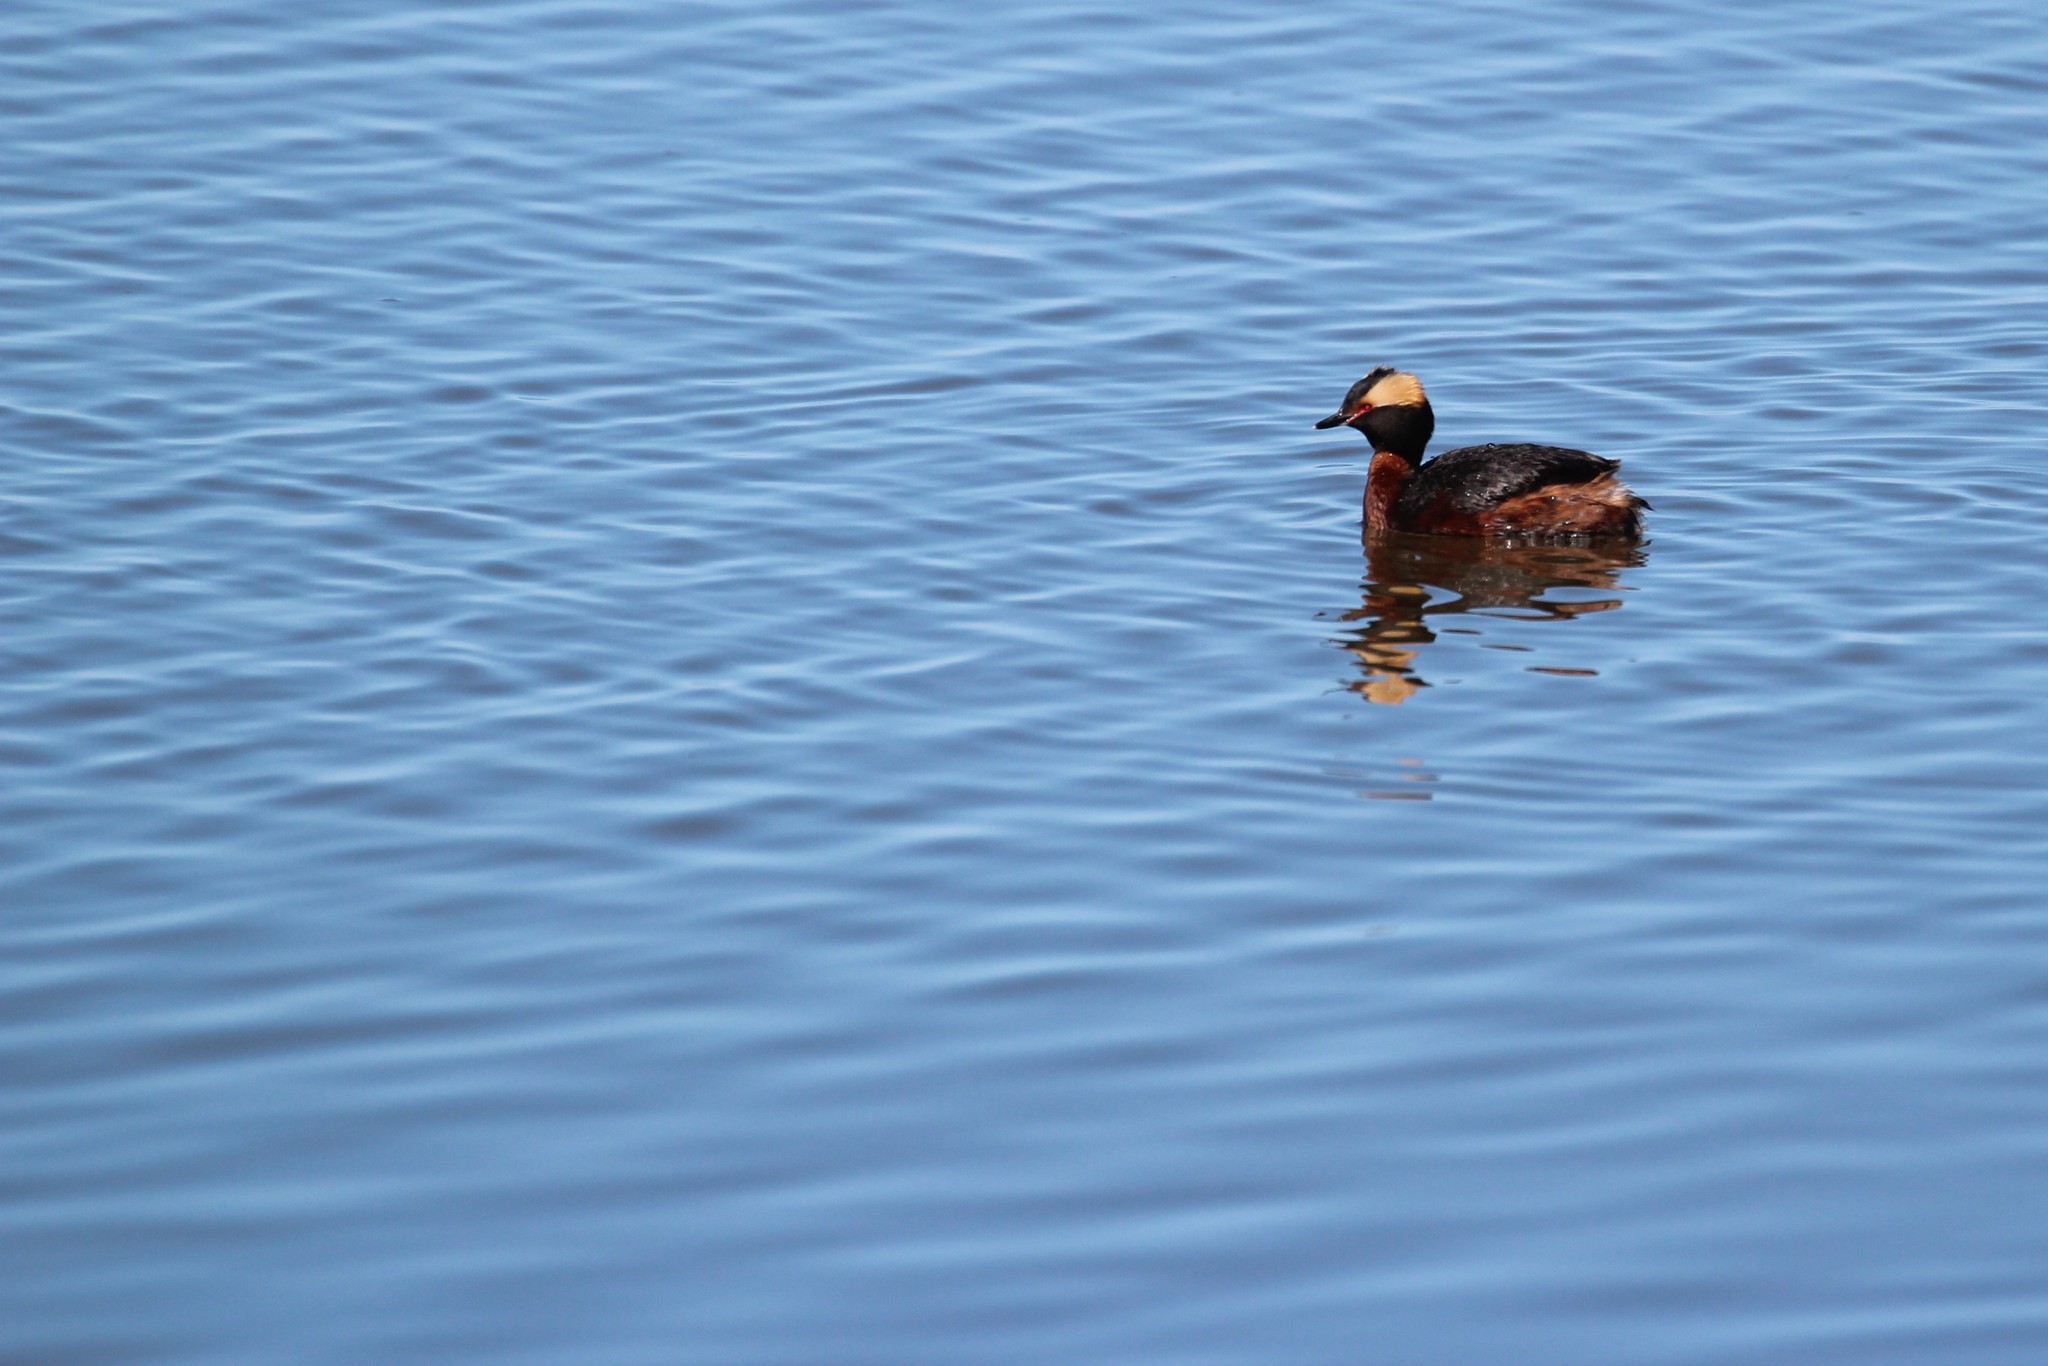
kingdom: Animalia
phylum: Chordata
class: Aves
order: Podicipediformes
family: Podicipedidae
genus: Podiceps
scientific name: Podiceps auritus
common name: Horned grebe
